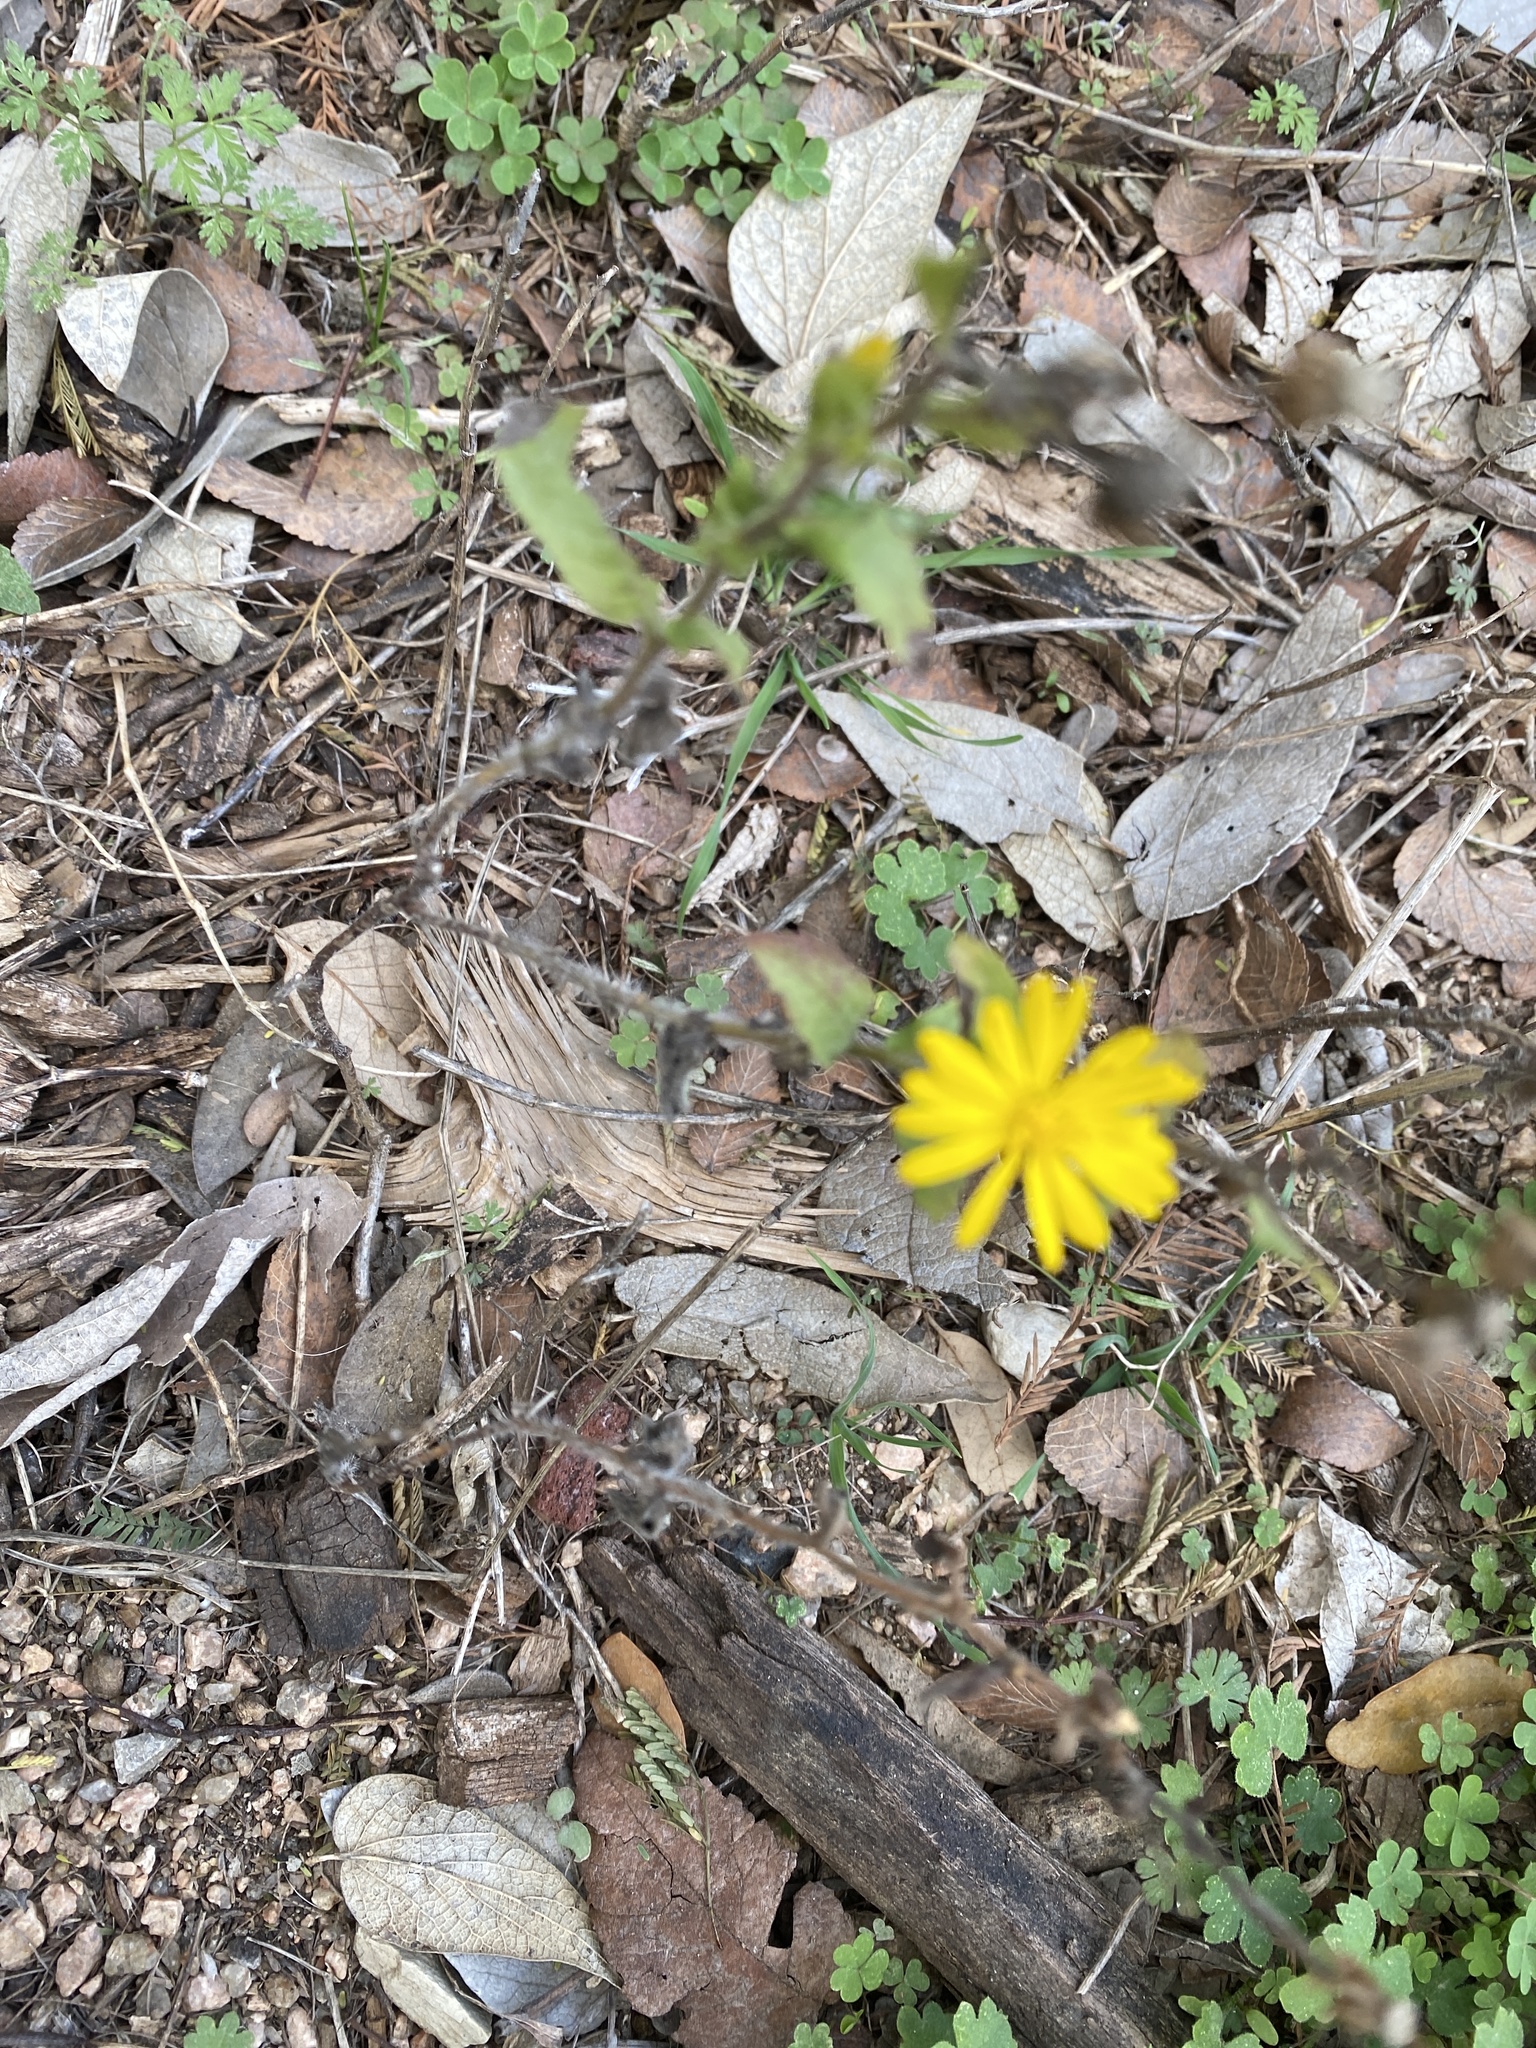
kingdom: Plantae
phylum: Tracheophyta
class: Magnoliopsida
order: Asterales
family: Asteraceae
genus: Heterotheca
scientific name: Heterotheca subaxillaris
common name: Camphorweed
